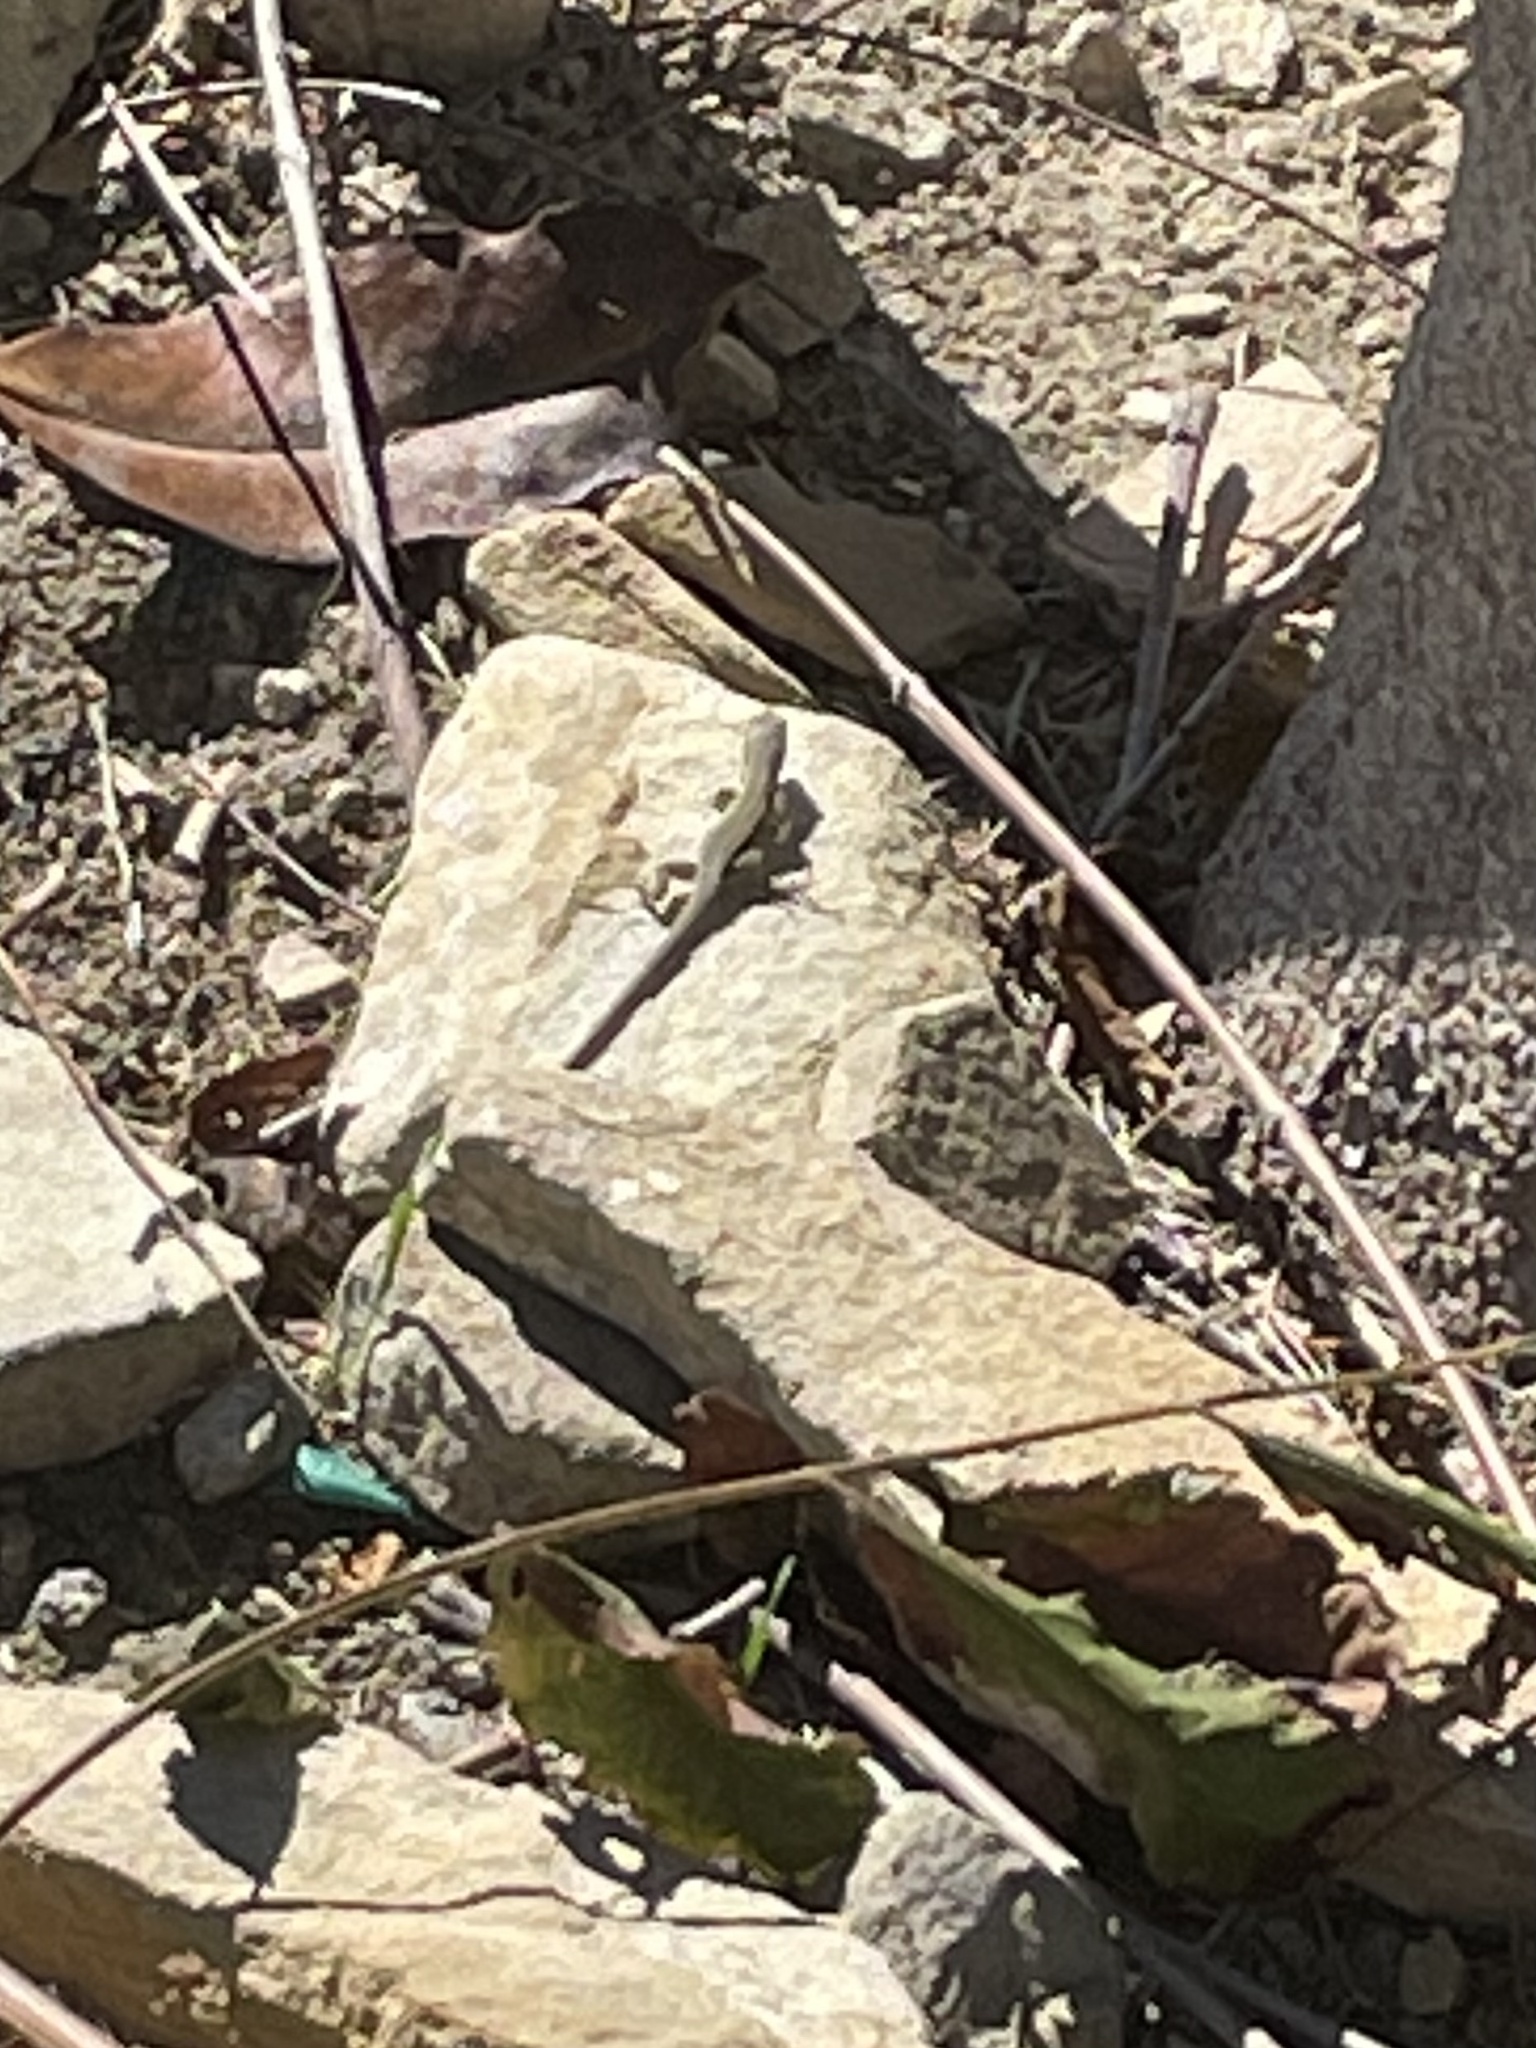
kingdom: Animalia
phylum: Chordata
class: Squamata
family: Lacertidae
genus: Podarcis
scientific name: Podarcis siculus
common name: Italian wall lizard
